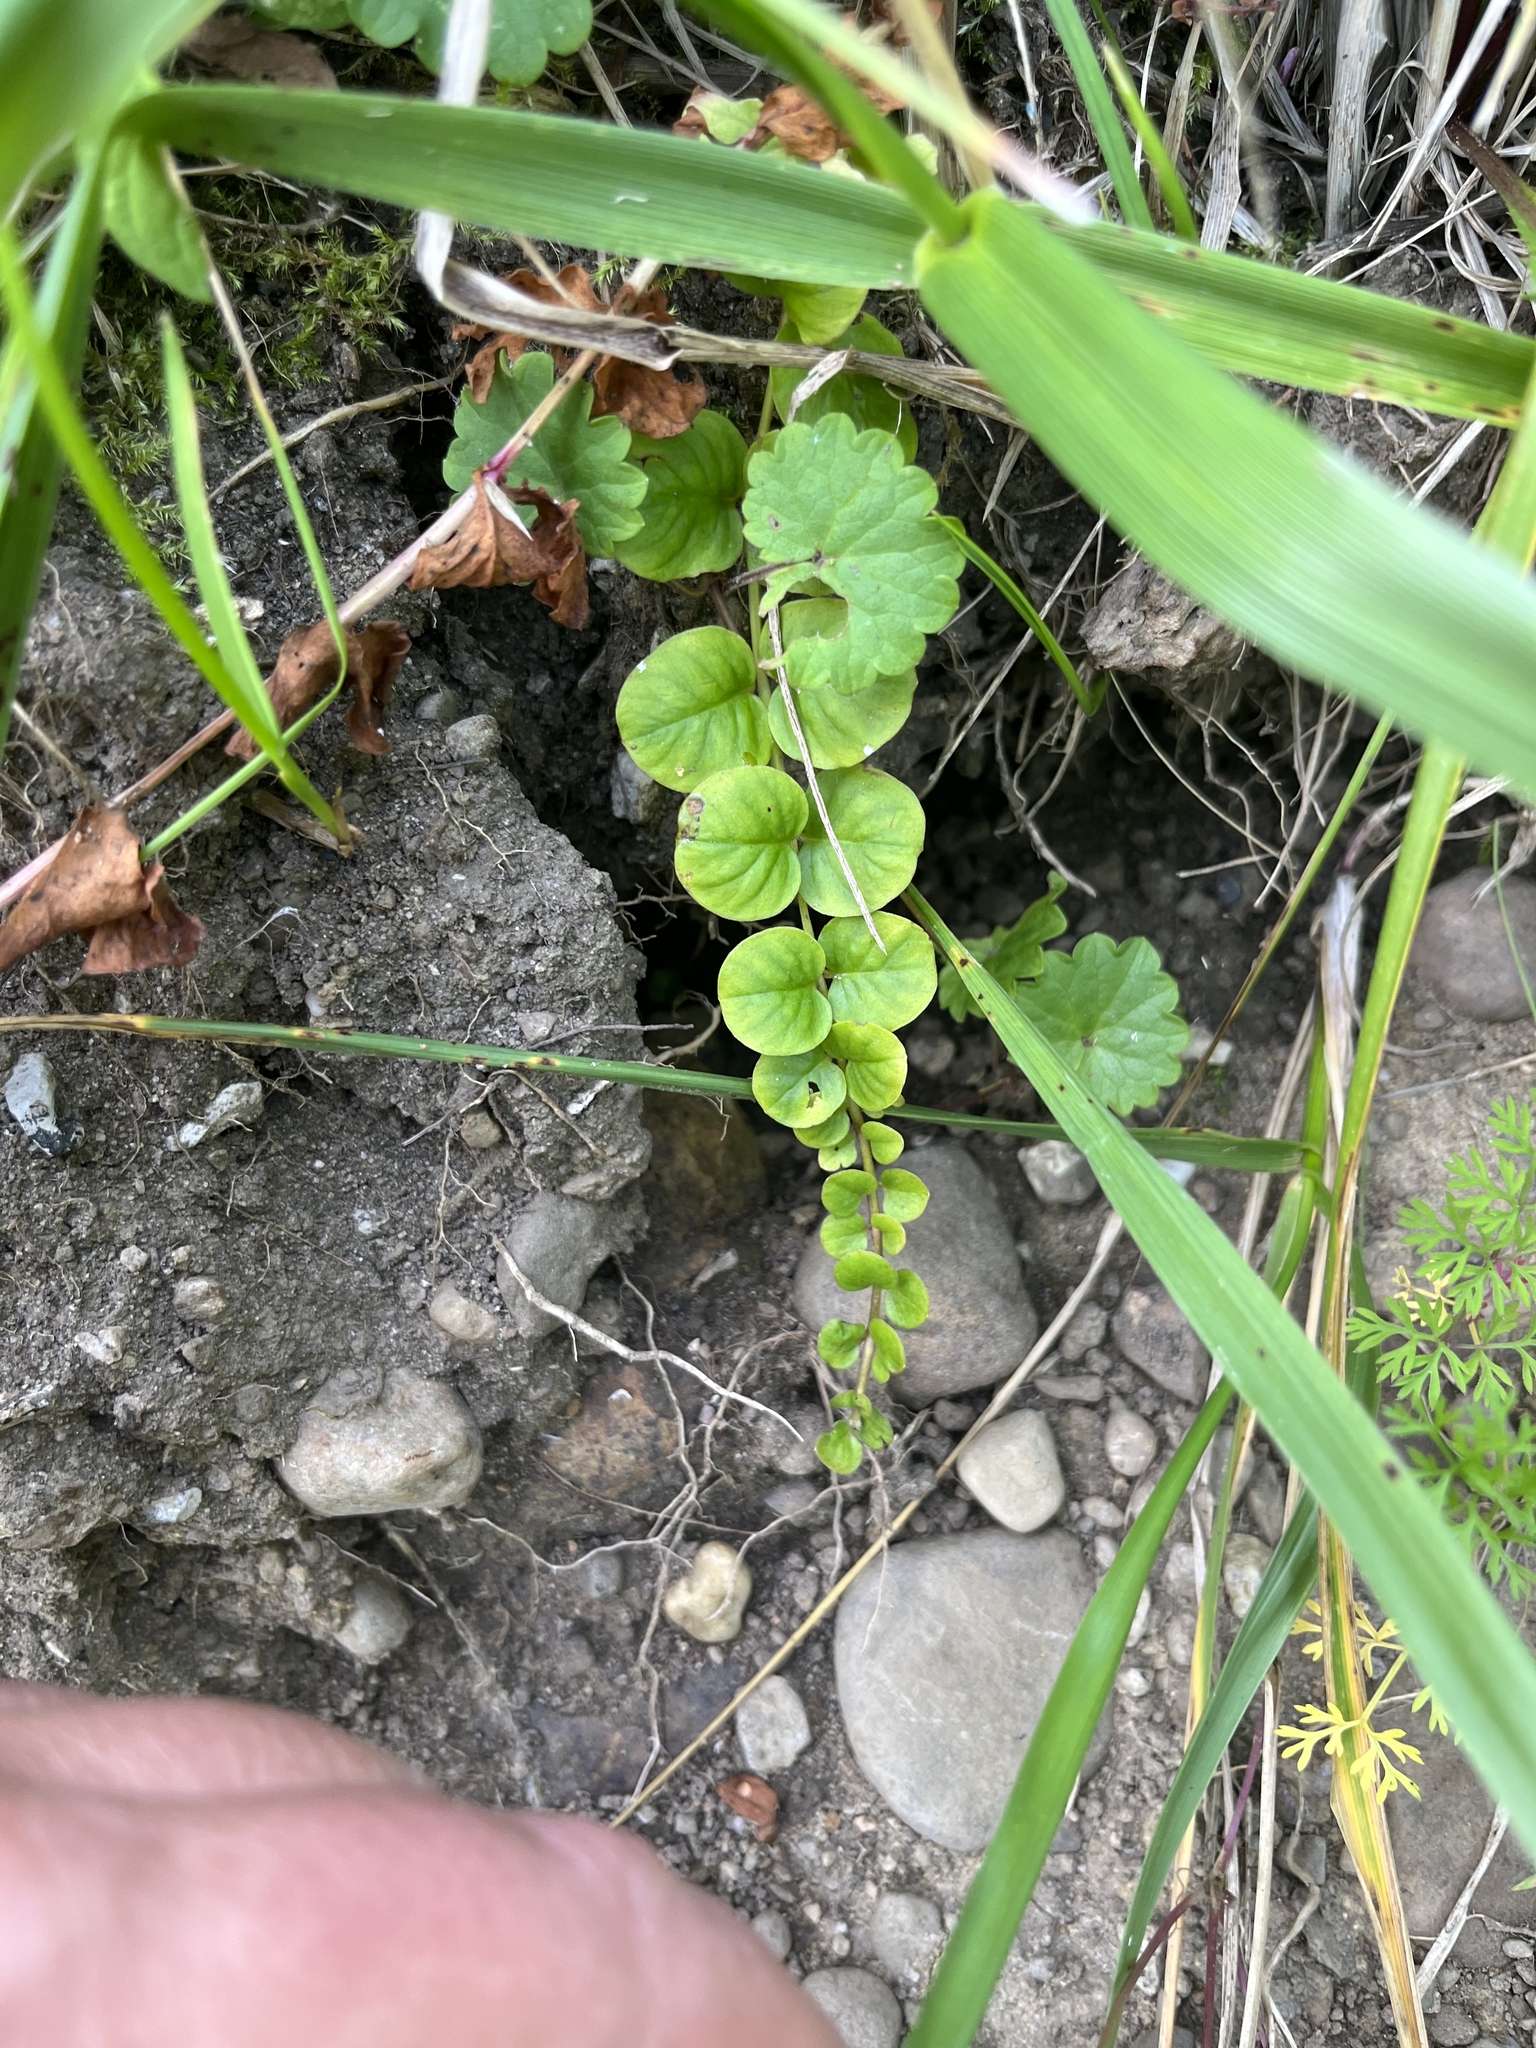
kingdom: Plantae
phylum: Tracheophyta
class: Magnoliopsida
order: Ericales
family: Primulaceae
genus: Lysimachia
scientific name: Lysimachia nummularia
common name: Moneywort
